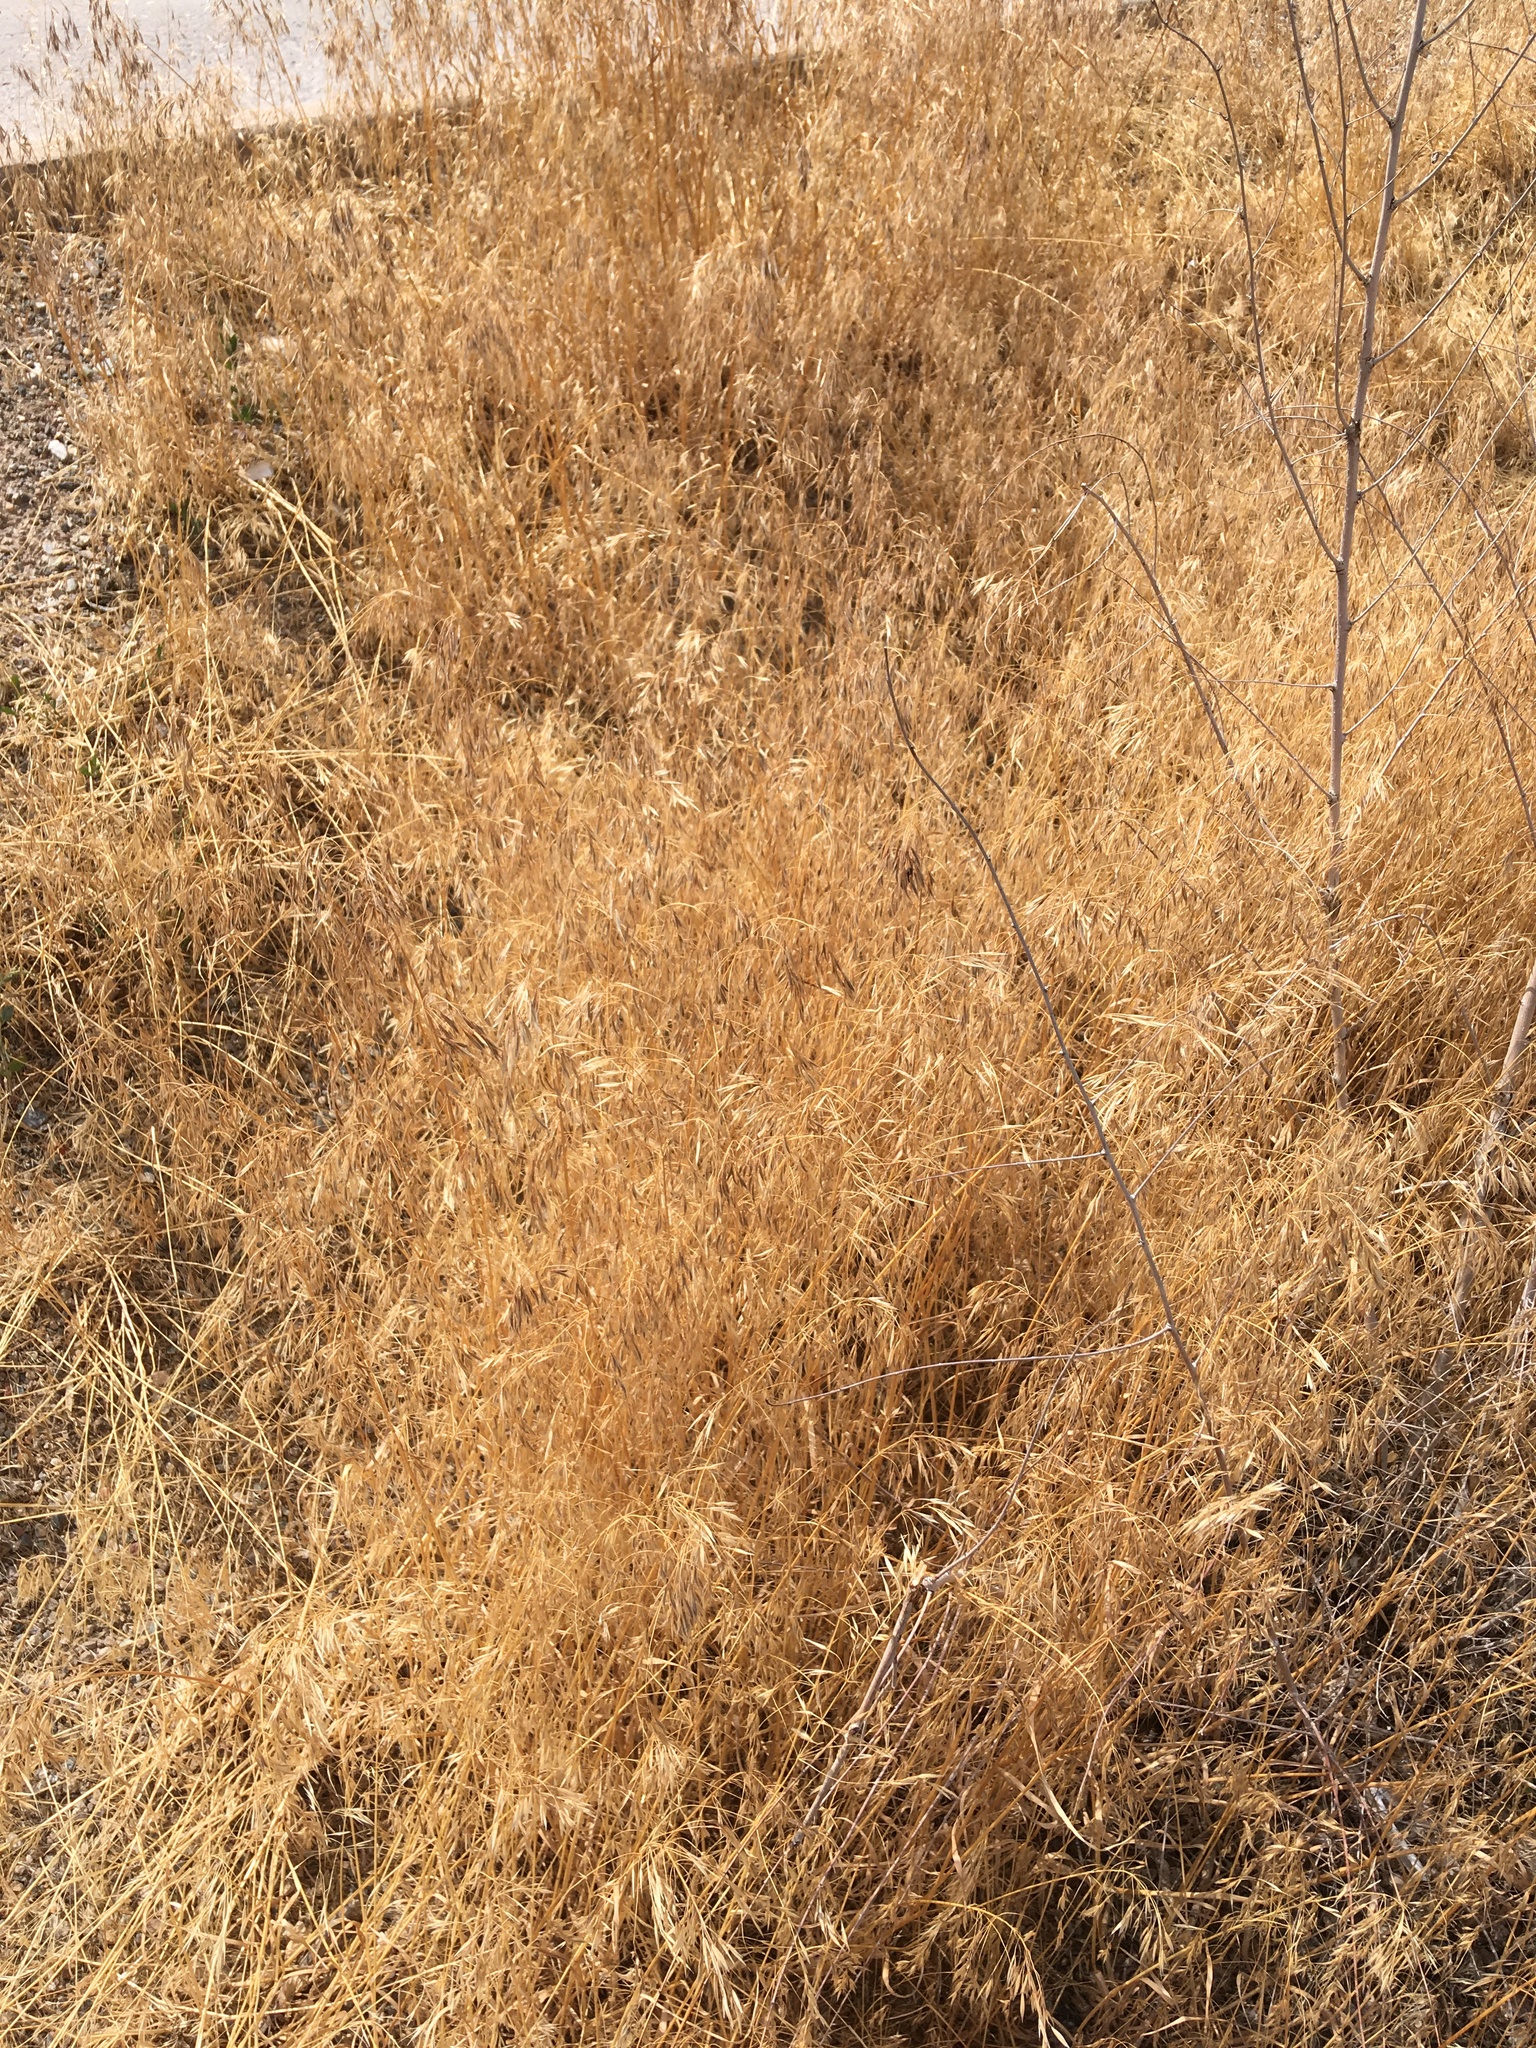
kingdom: Plantae
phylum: Tracheophyta
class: Liliopsida
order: Poales
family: Poaceae
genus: Bromus
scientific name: Bromus tectorum
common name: Cheatgrass
